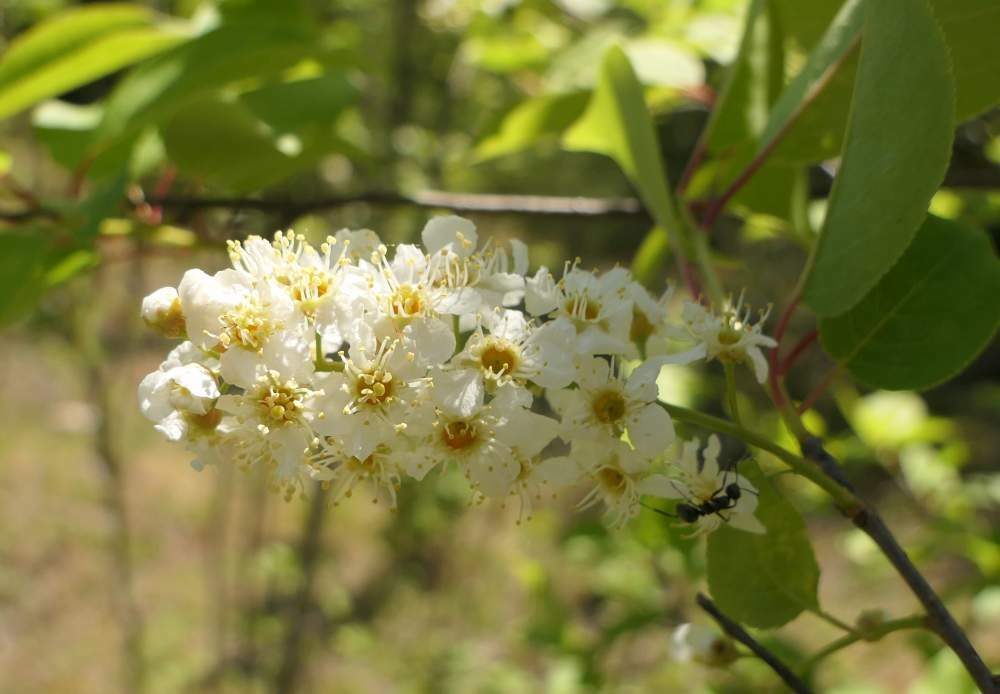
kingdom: Plantae
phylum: Tracheophyta
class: Magnoliopsida
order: Rosales
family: Rosaceae
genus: Prunus
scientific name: Prunus virginiana
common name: Chokecherry
